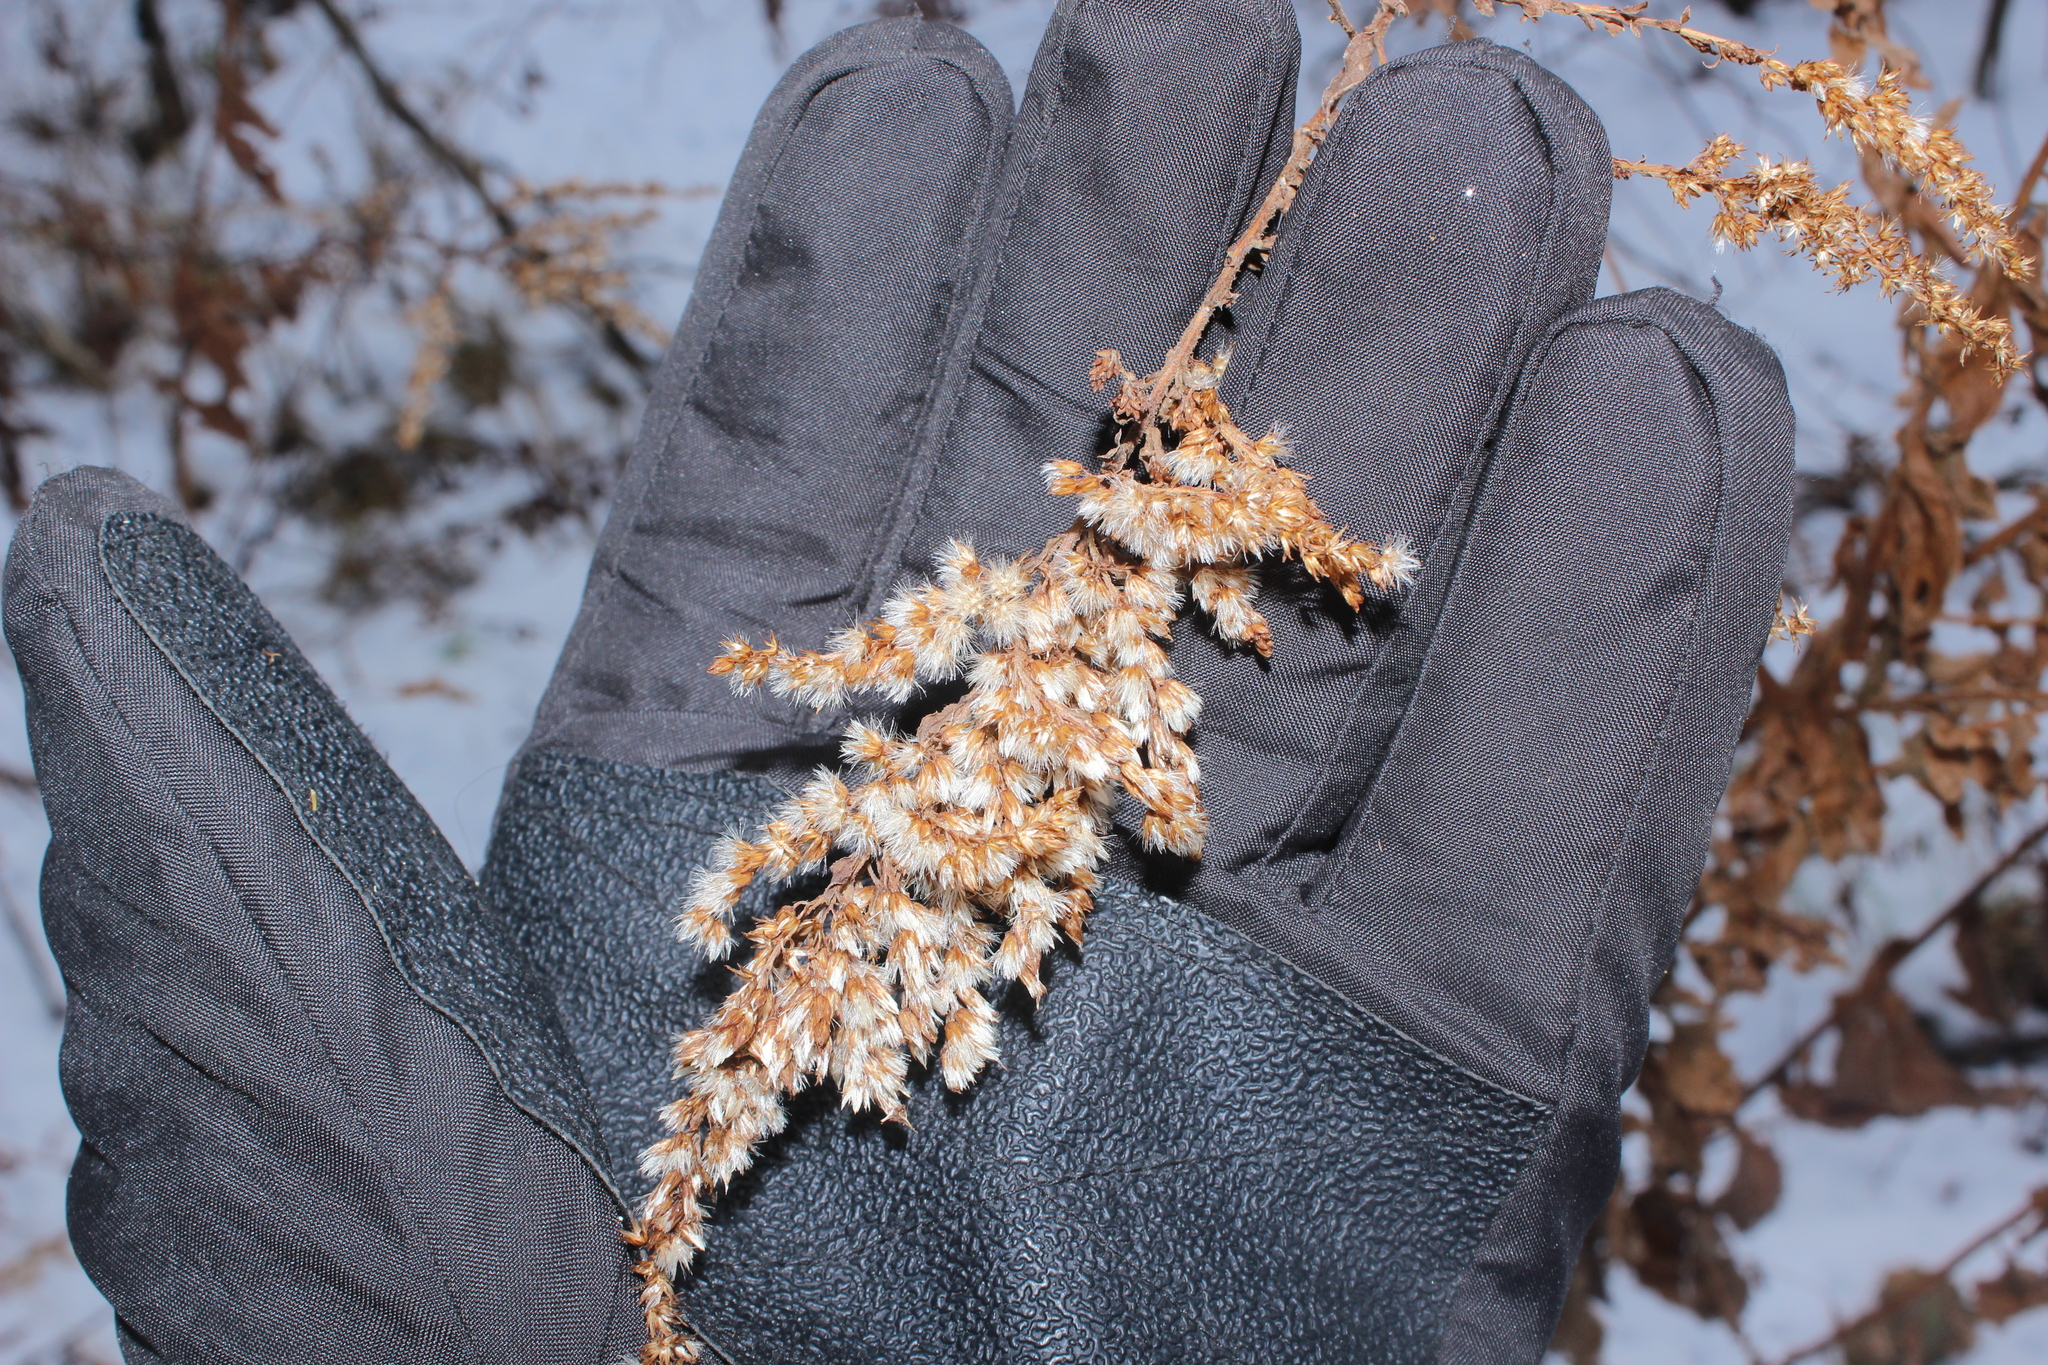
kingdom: Plantae
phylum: Tracheophyta
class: Magnoliopsida
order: Asterales
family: Asteraceae
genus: Solidago
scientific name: Solidago rugosa
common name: Rough-stemmed goldenrod
